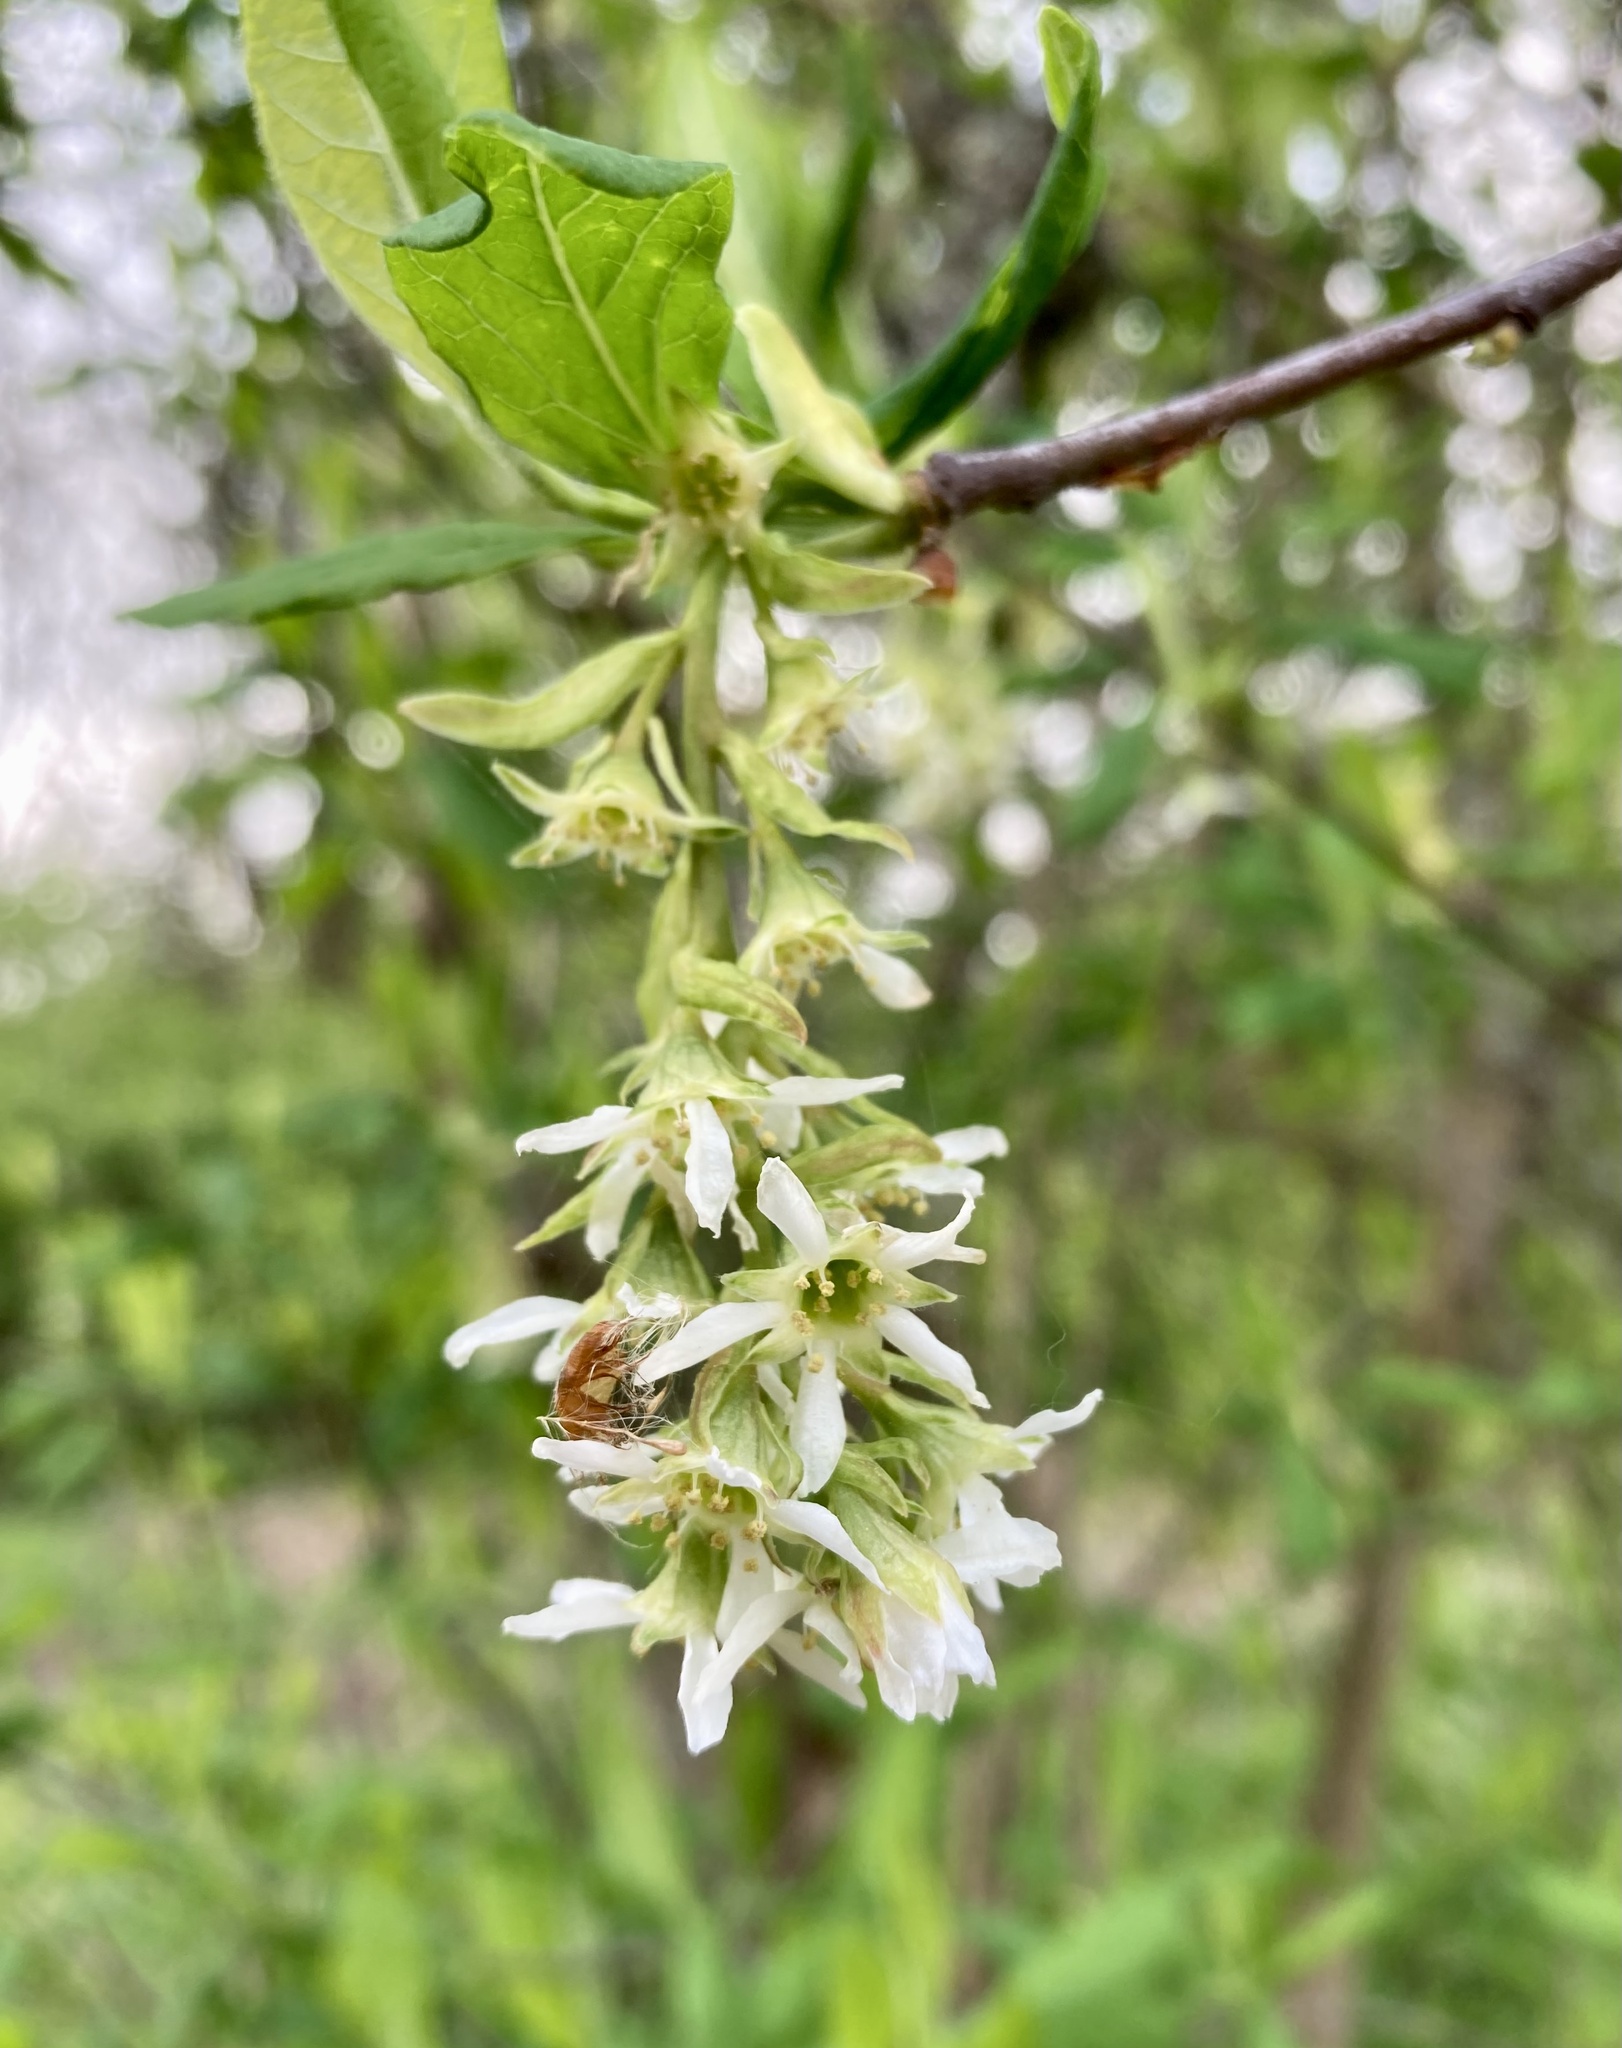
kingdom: Plantae
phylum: Tracheophyta
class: Magnoliopsida
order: Rosales
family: Rosaceae
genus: Oemleria
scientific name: Oemleria cerasiformis
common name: Osoberry
